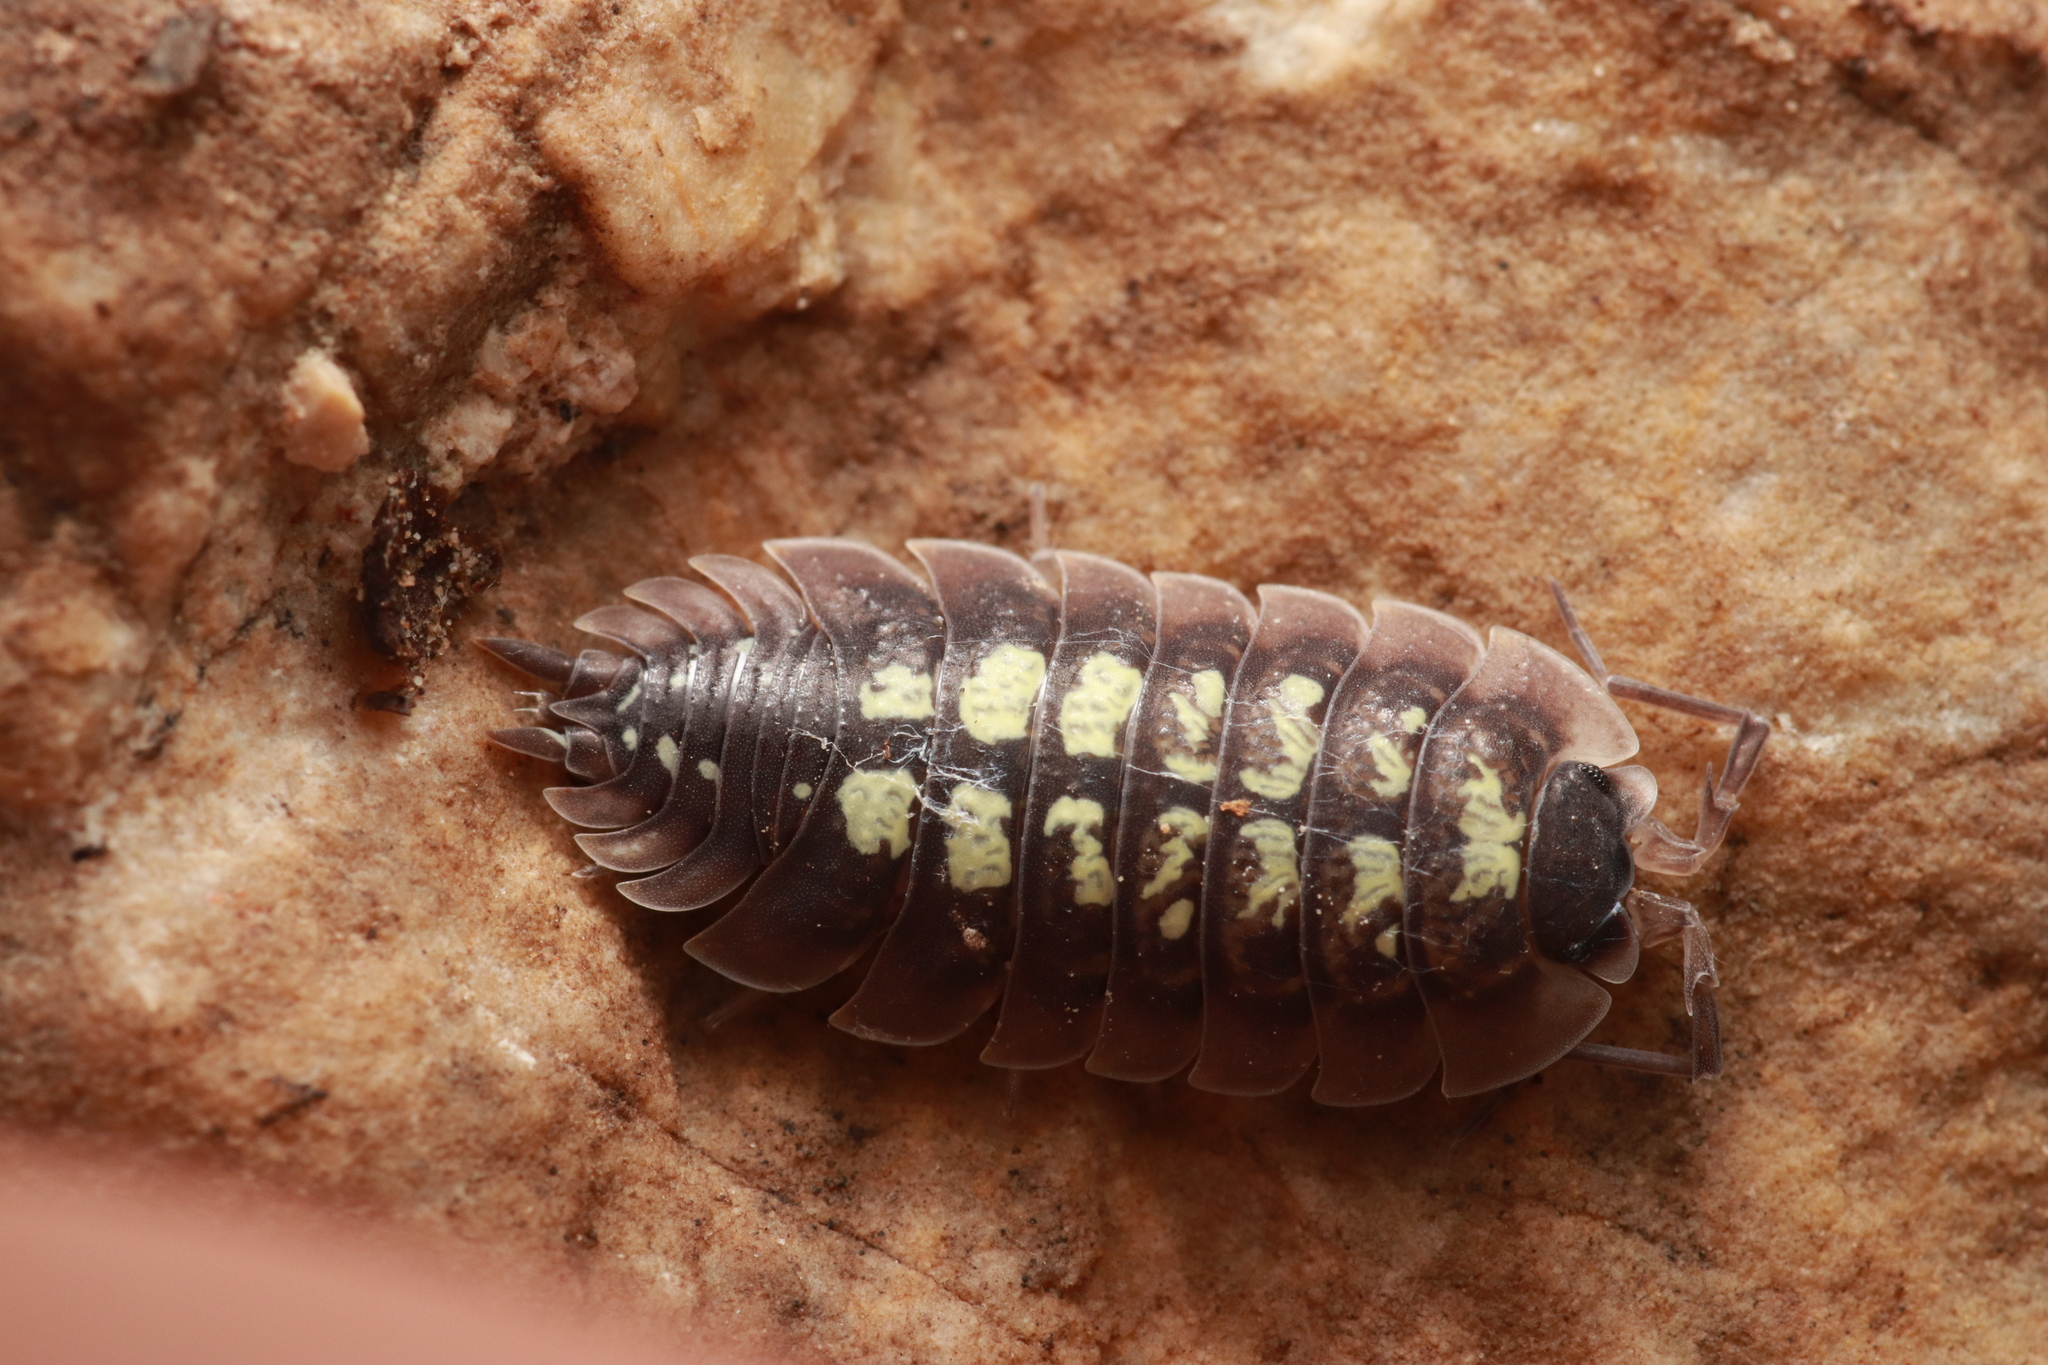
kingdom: Animalia
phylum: Arthropoda
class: Malacostraca
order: Isopoda
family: Porcellionidae
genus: Porcellio
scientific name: Porcellio spinipennis
